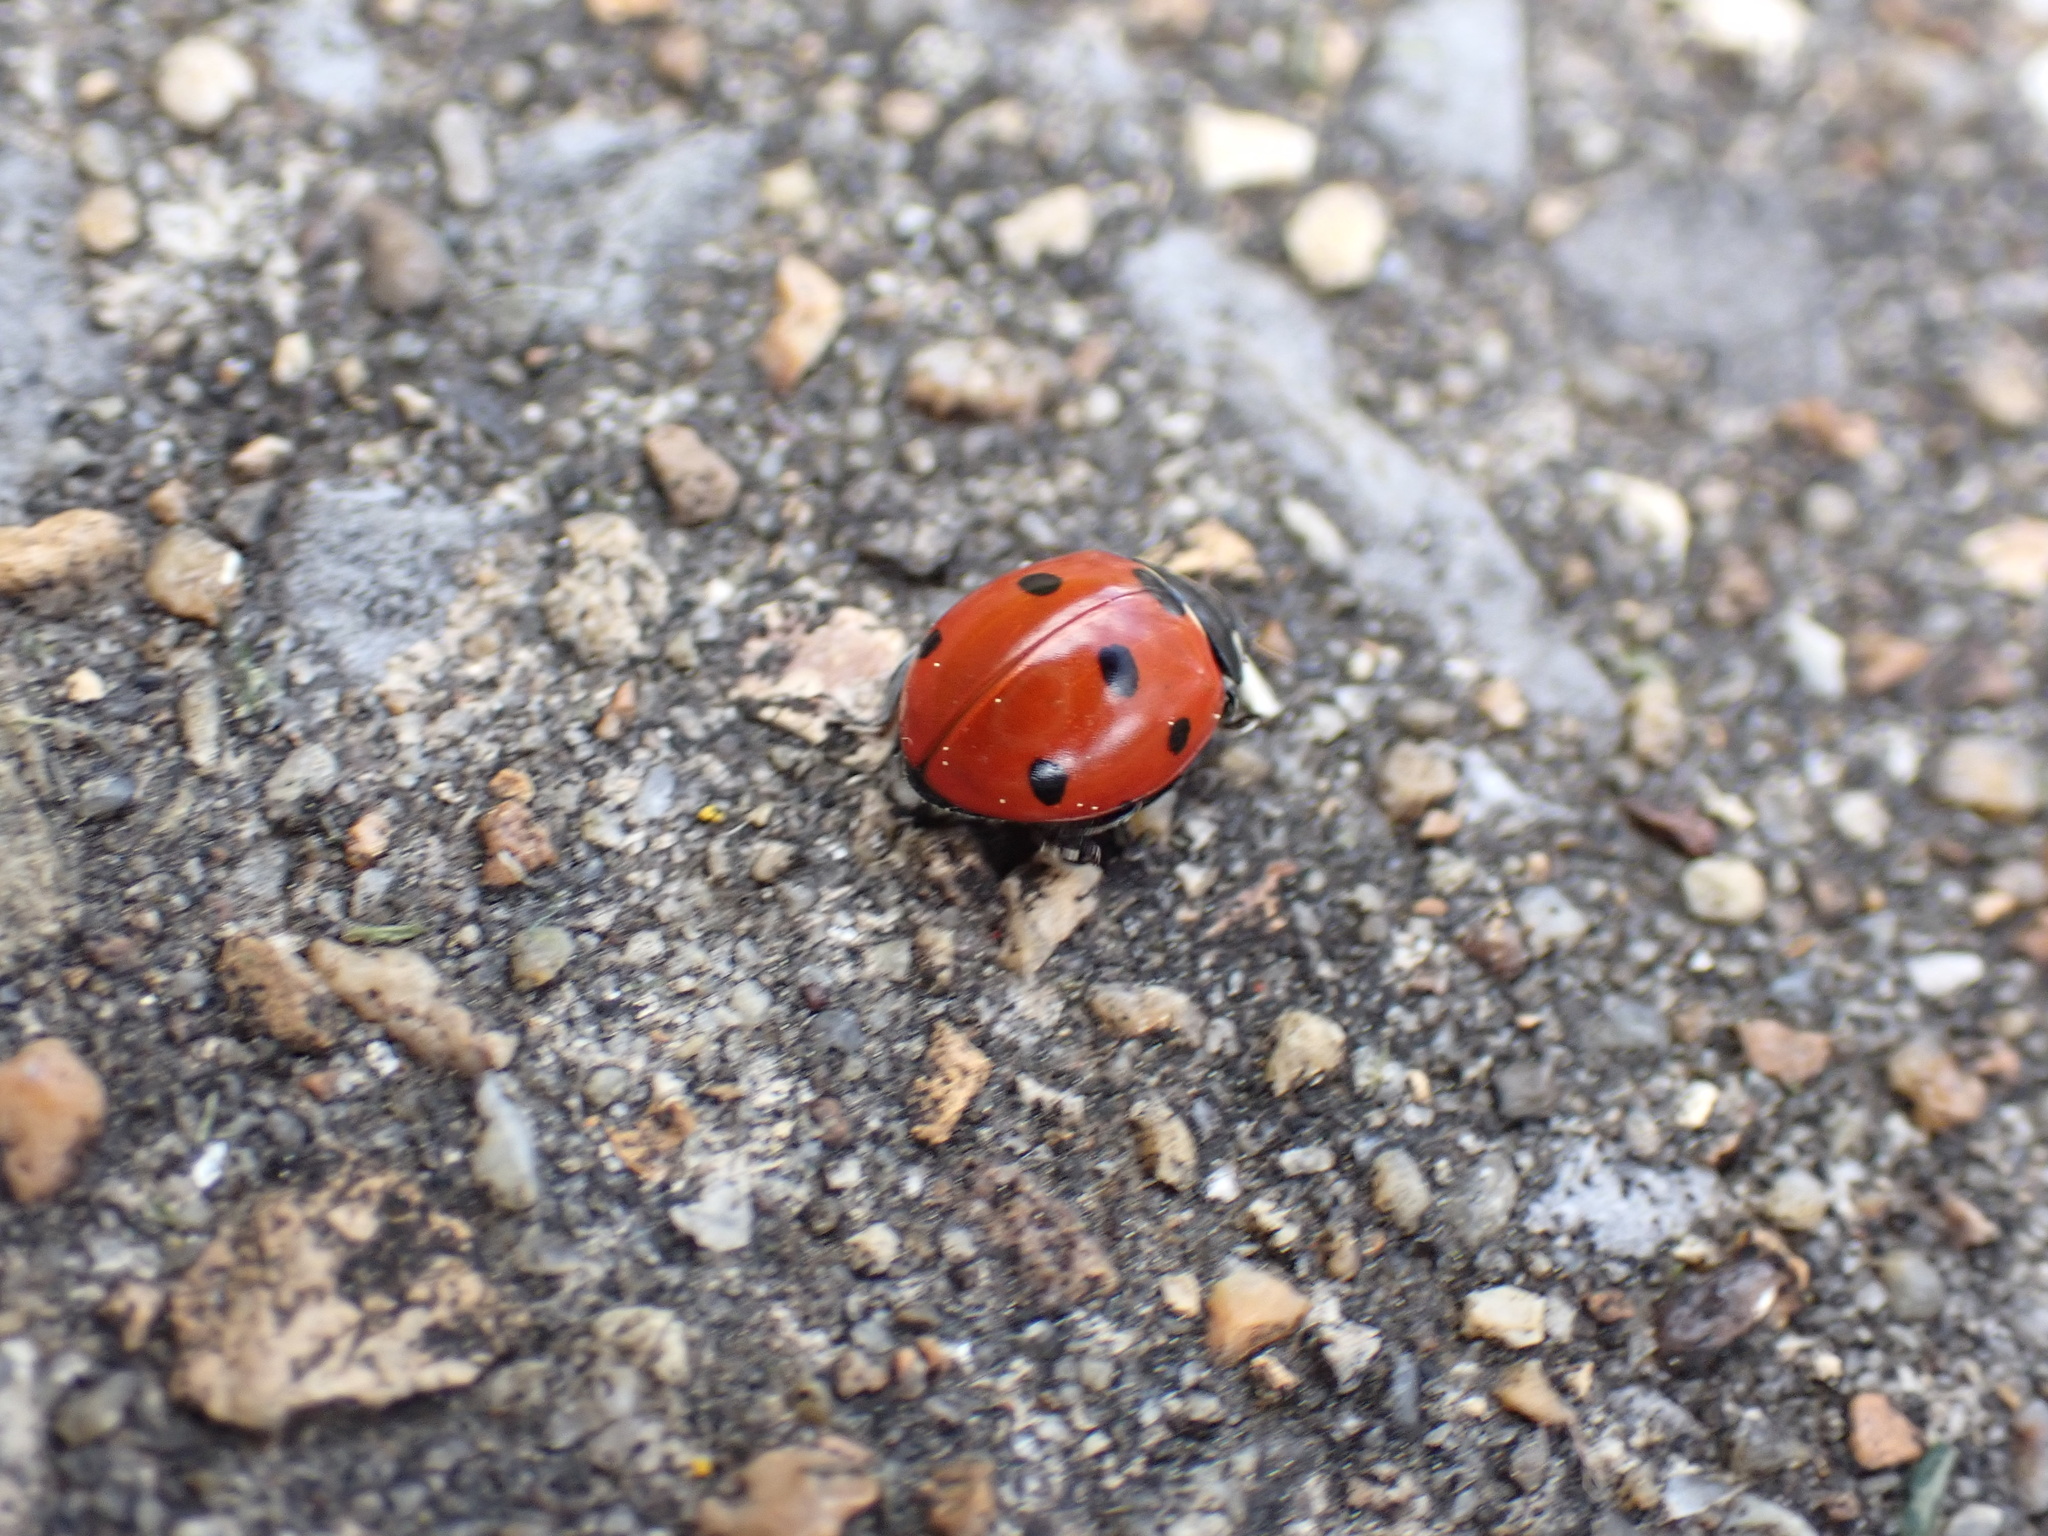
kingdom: Animalia
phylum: Arthropoda
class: Insecta
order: Coleoptera
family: Coccinellidae
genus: Coccinella
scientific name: Coccinella septempunctata
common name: Sevenspotted lady beetle
